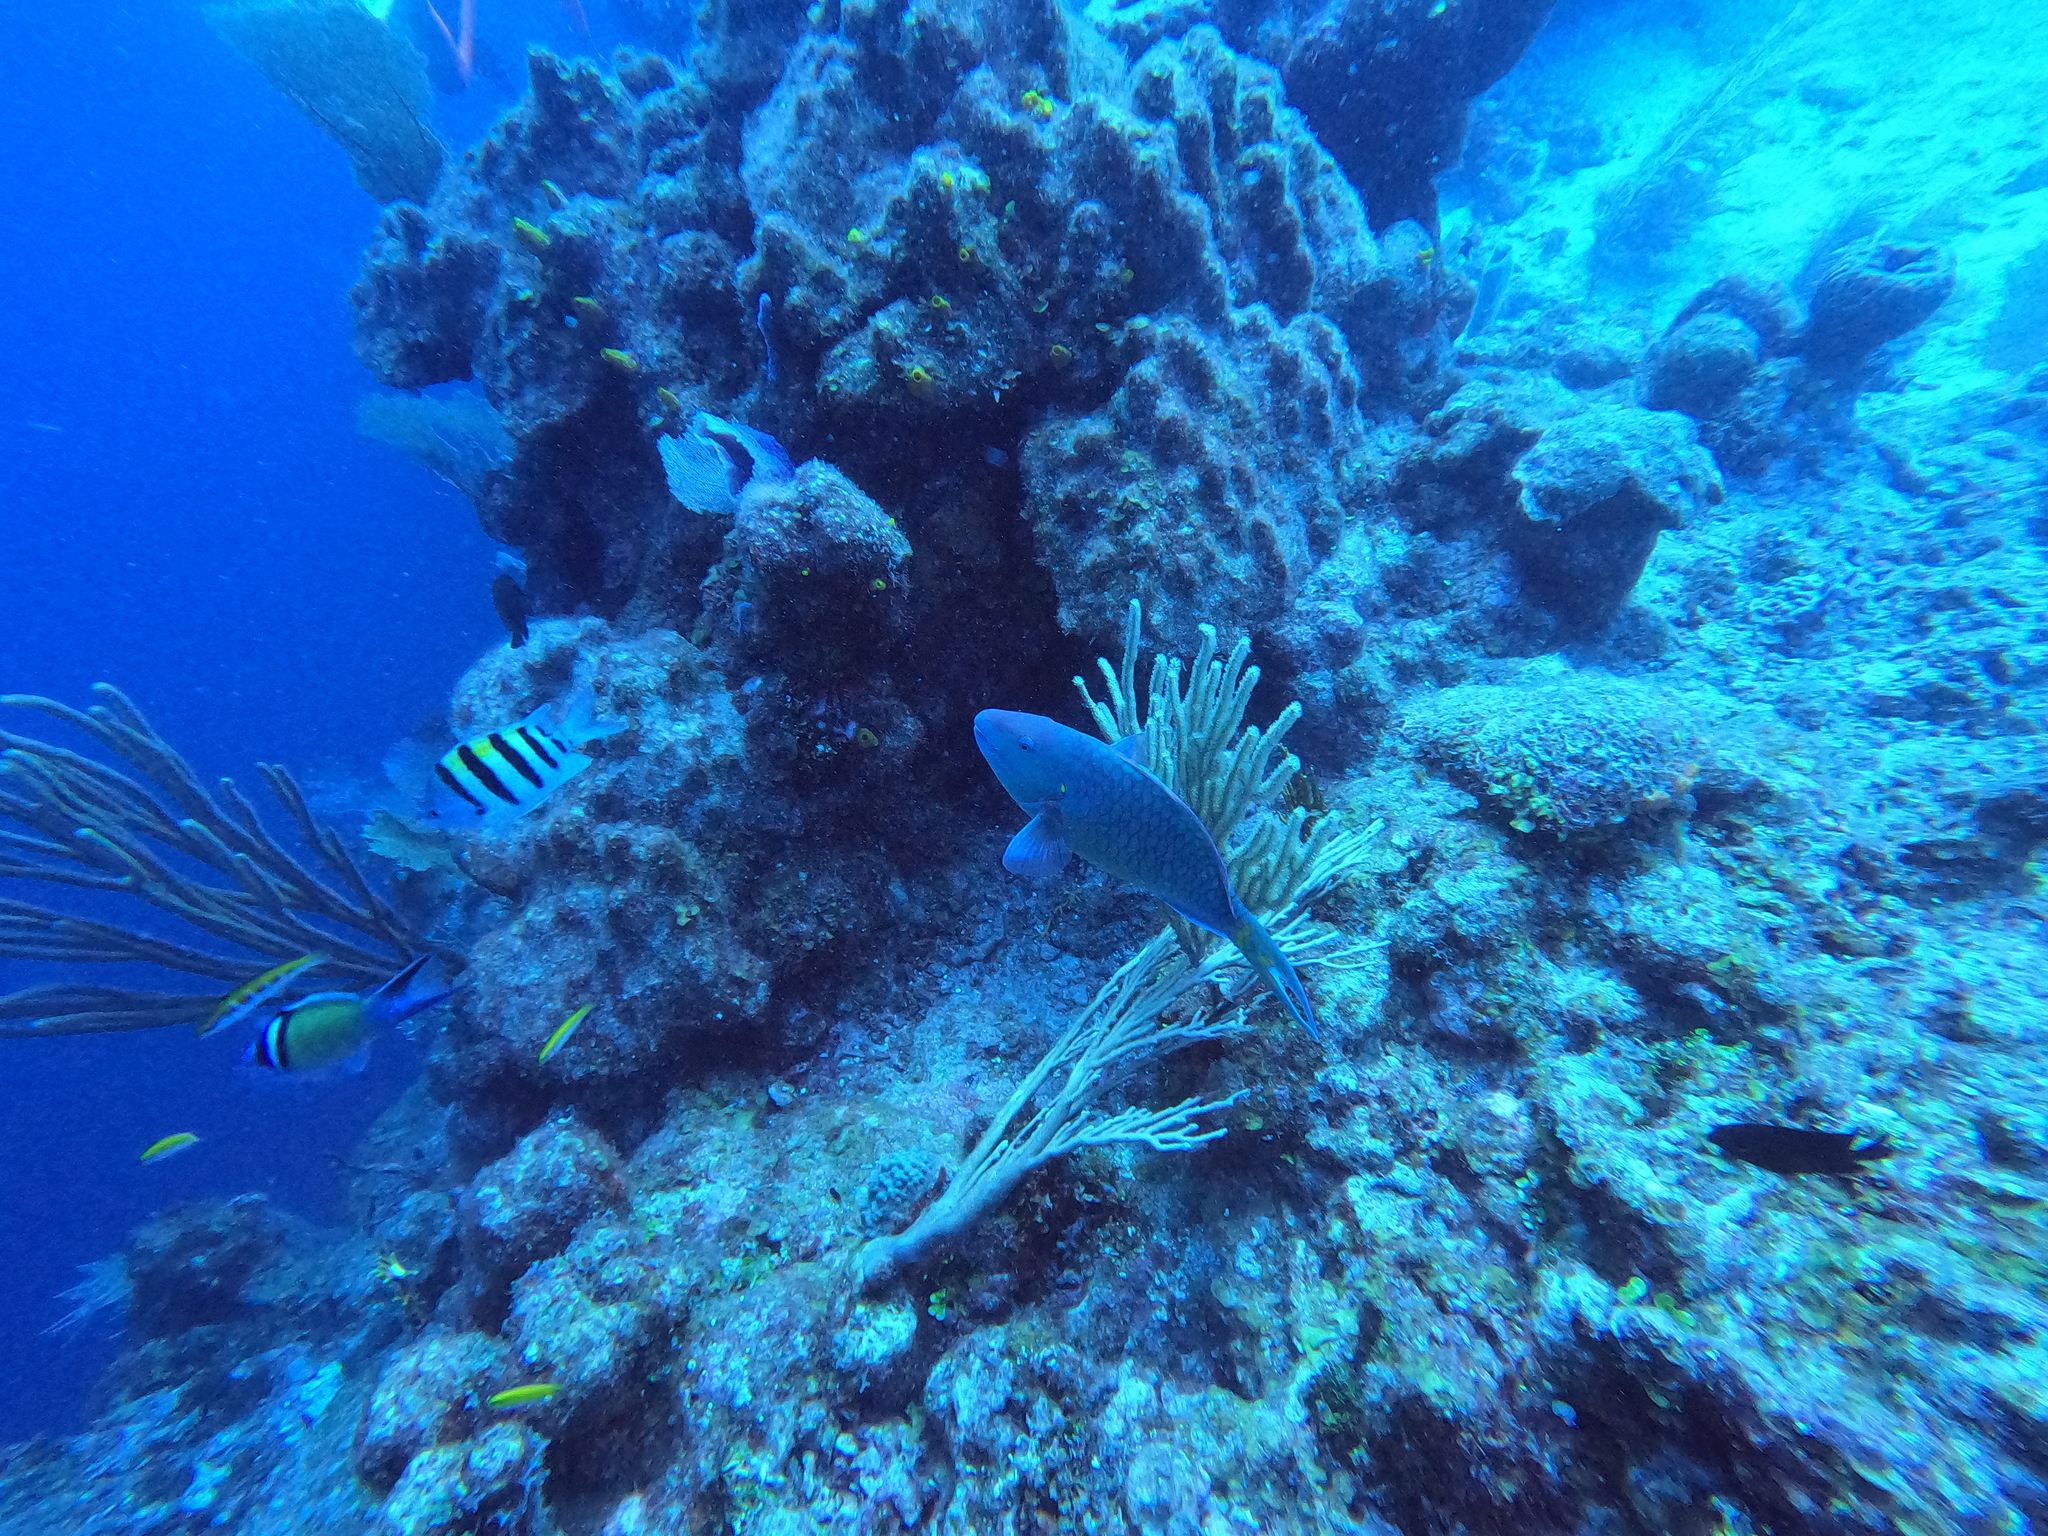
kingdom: Animalia
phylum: Chordata
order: Perciformes
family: Scaridae
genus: Sparisoma
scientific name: Sparisoma viride
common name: Stoplight parrotfish
